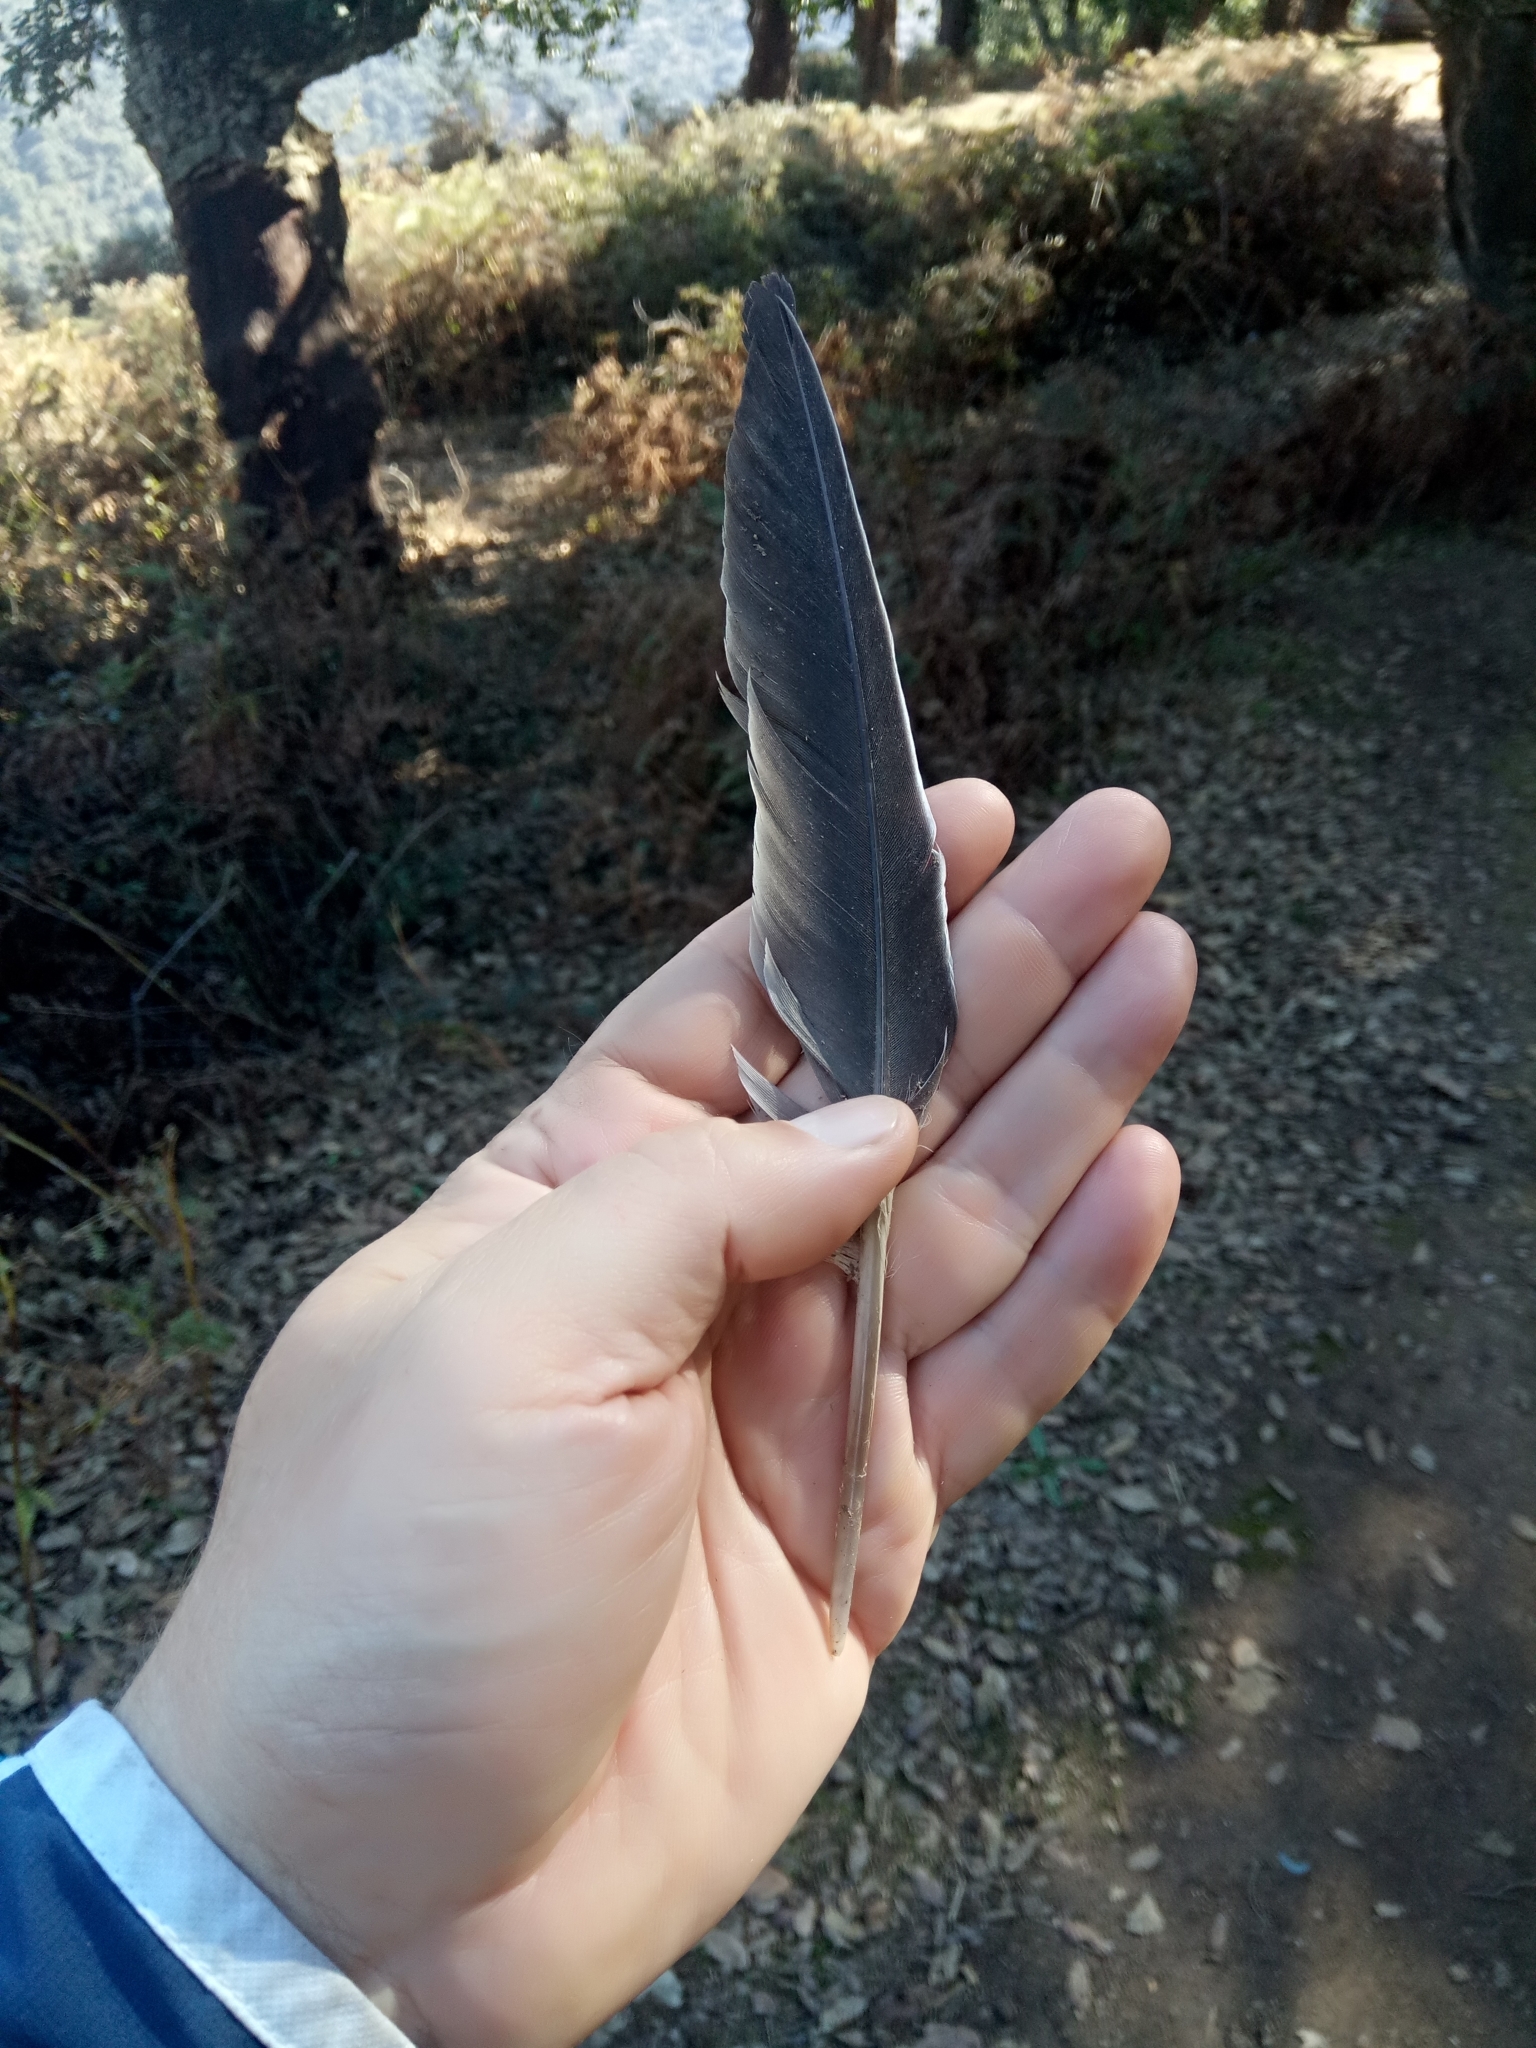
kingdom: Animalia
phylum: Chordata
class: Aves
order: Columbiformes
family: Columbidae
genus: Columba
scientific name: Columba palumbus
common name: Common wood pigeon
